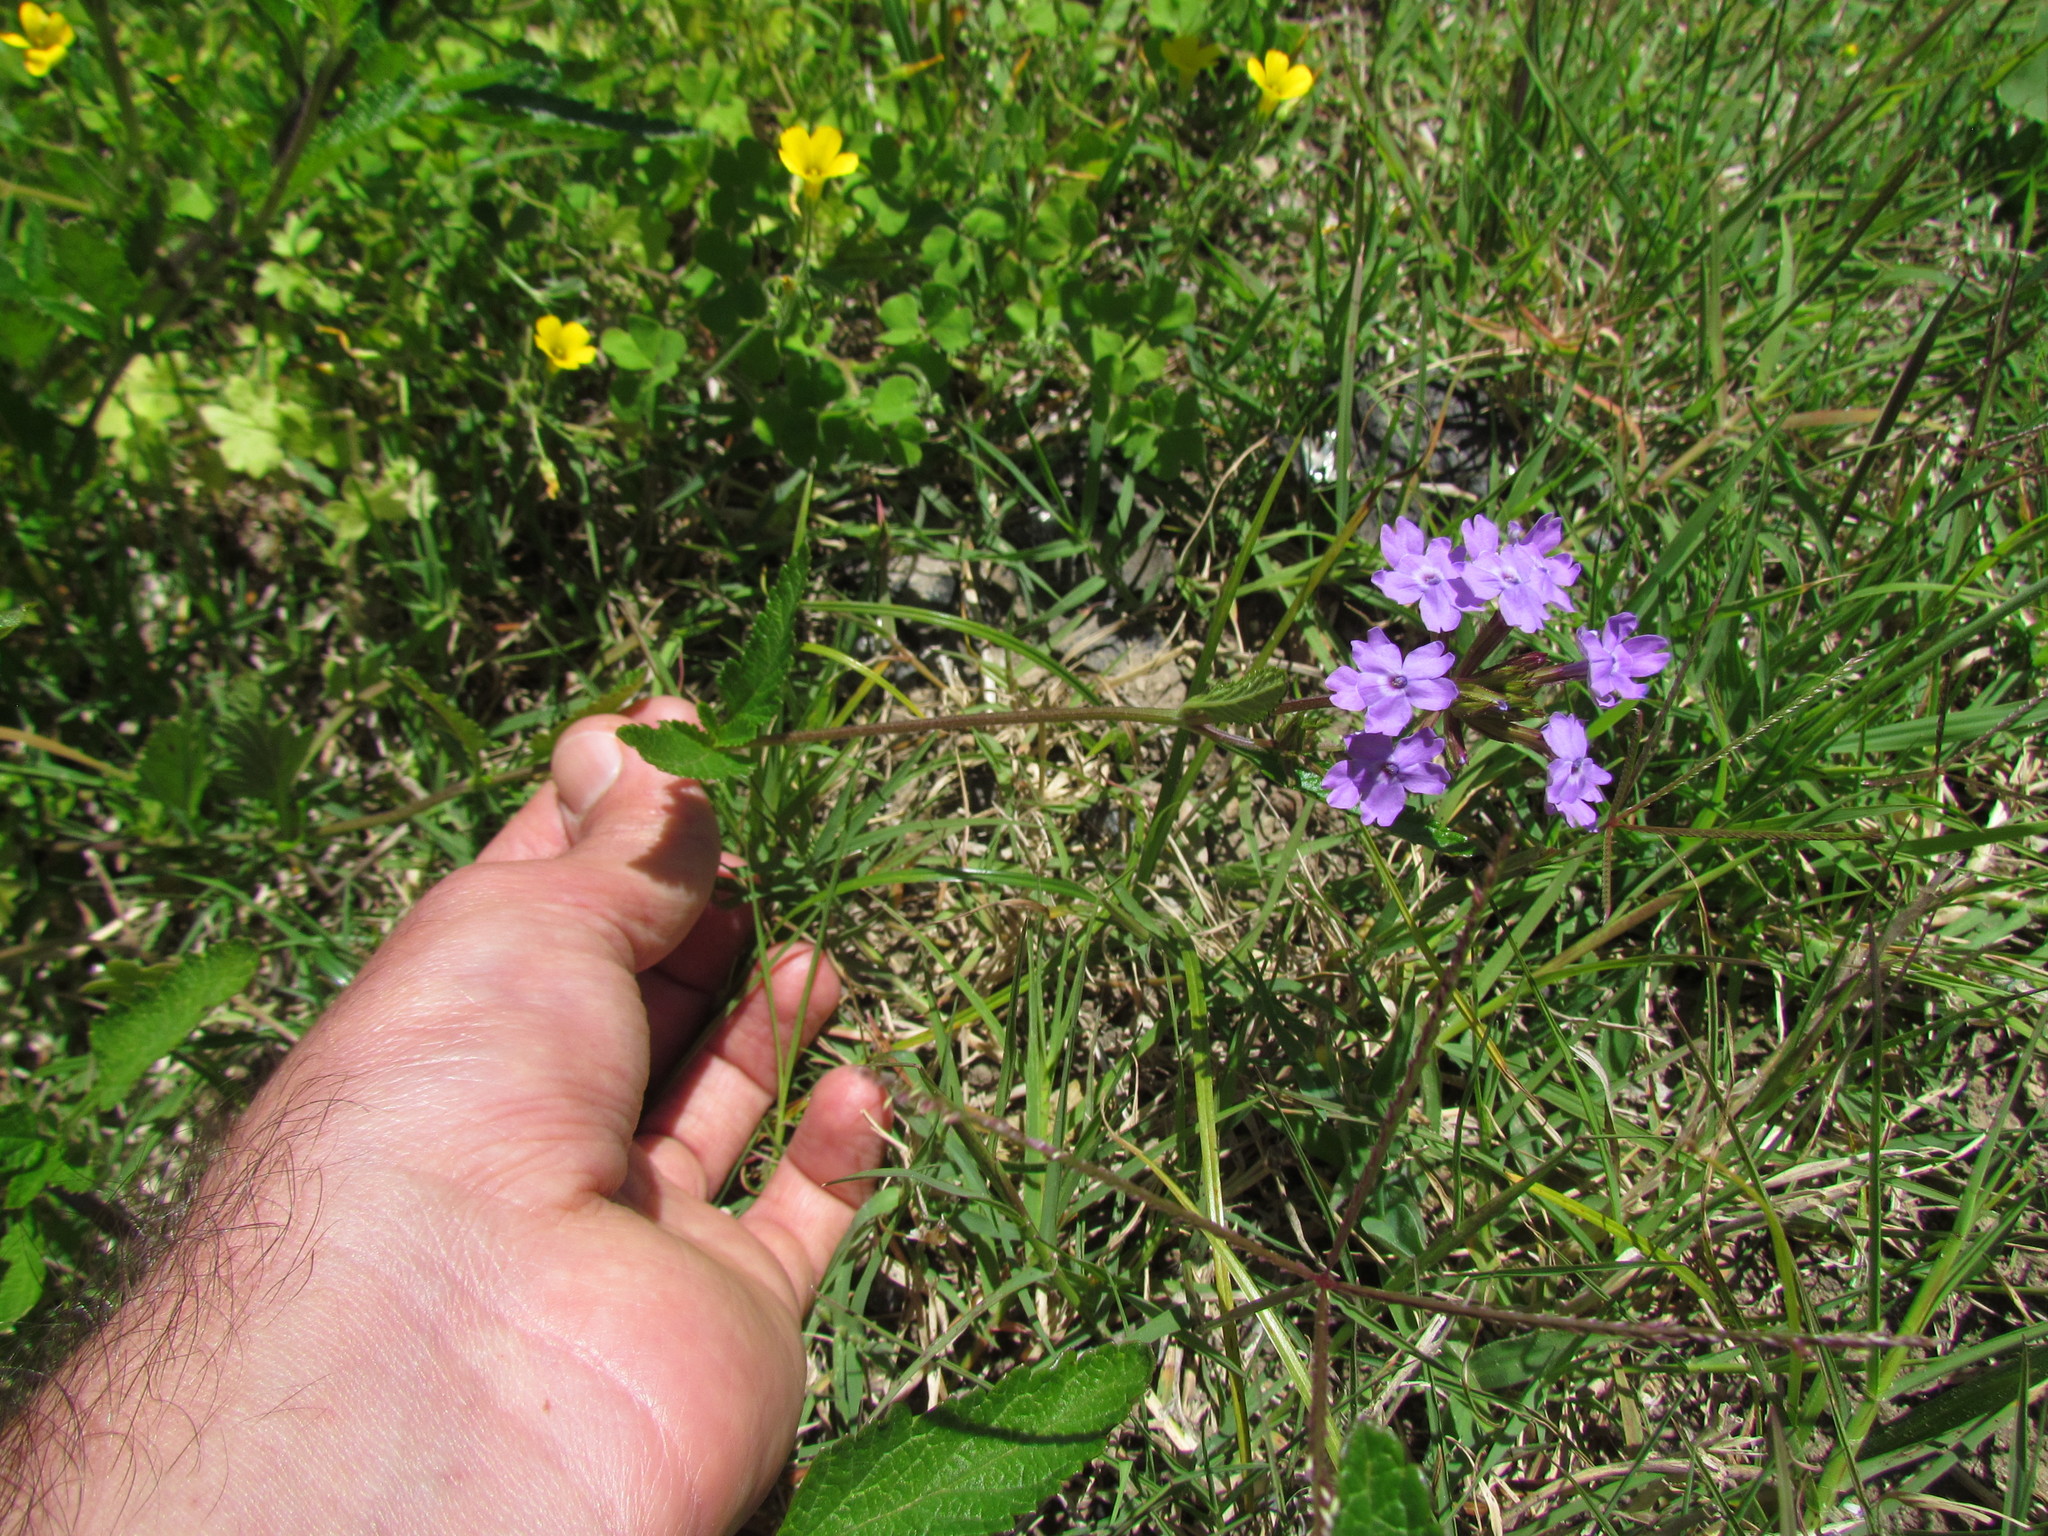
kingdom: Plantae
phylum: Tracheophyta
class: Magnoliopsida
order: Lamiales
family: Verbenaceae
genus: Verbena
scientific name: Verbena rigida
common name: Slender vervain
